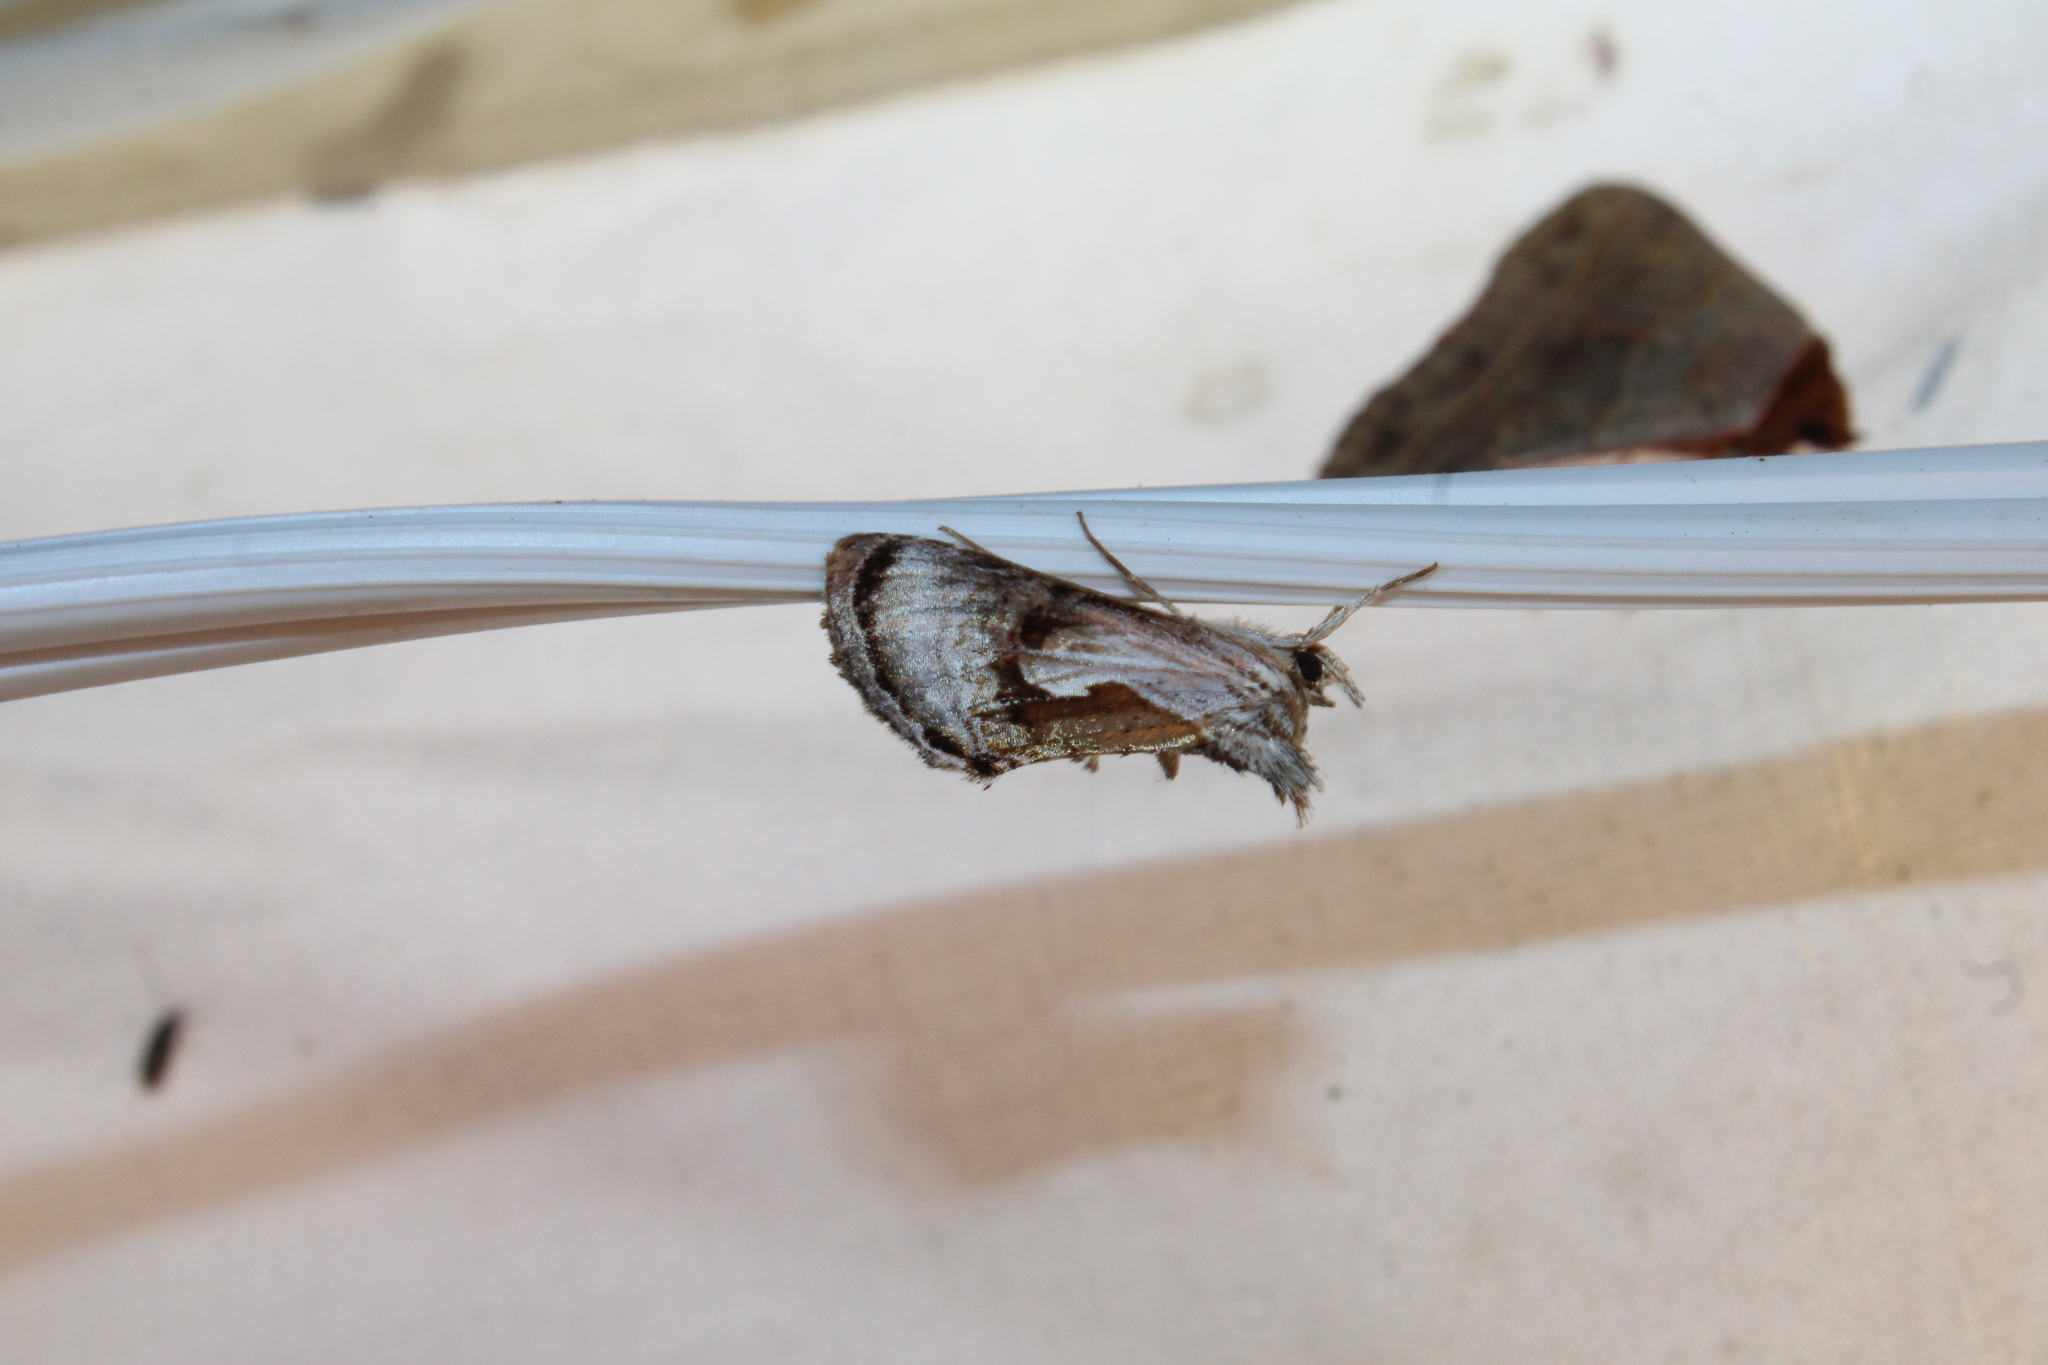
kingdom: Animalia
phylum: Arthropoda
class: Insecta
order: Lepidoptera
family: Noctuidae
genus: Chrysanympha
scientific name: Chrysanympha formosa
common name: Formosa looper moth
